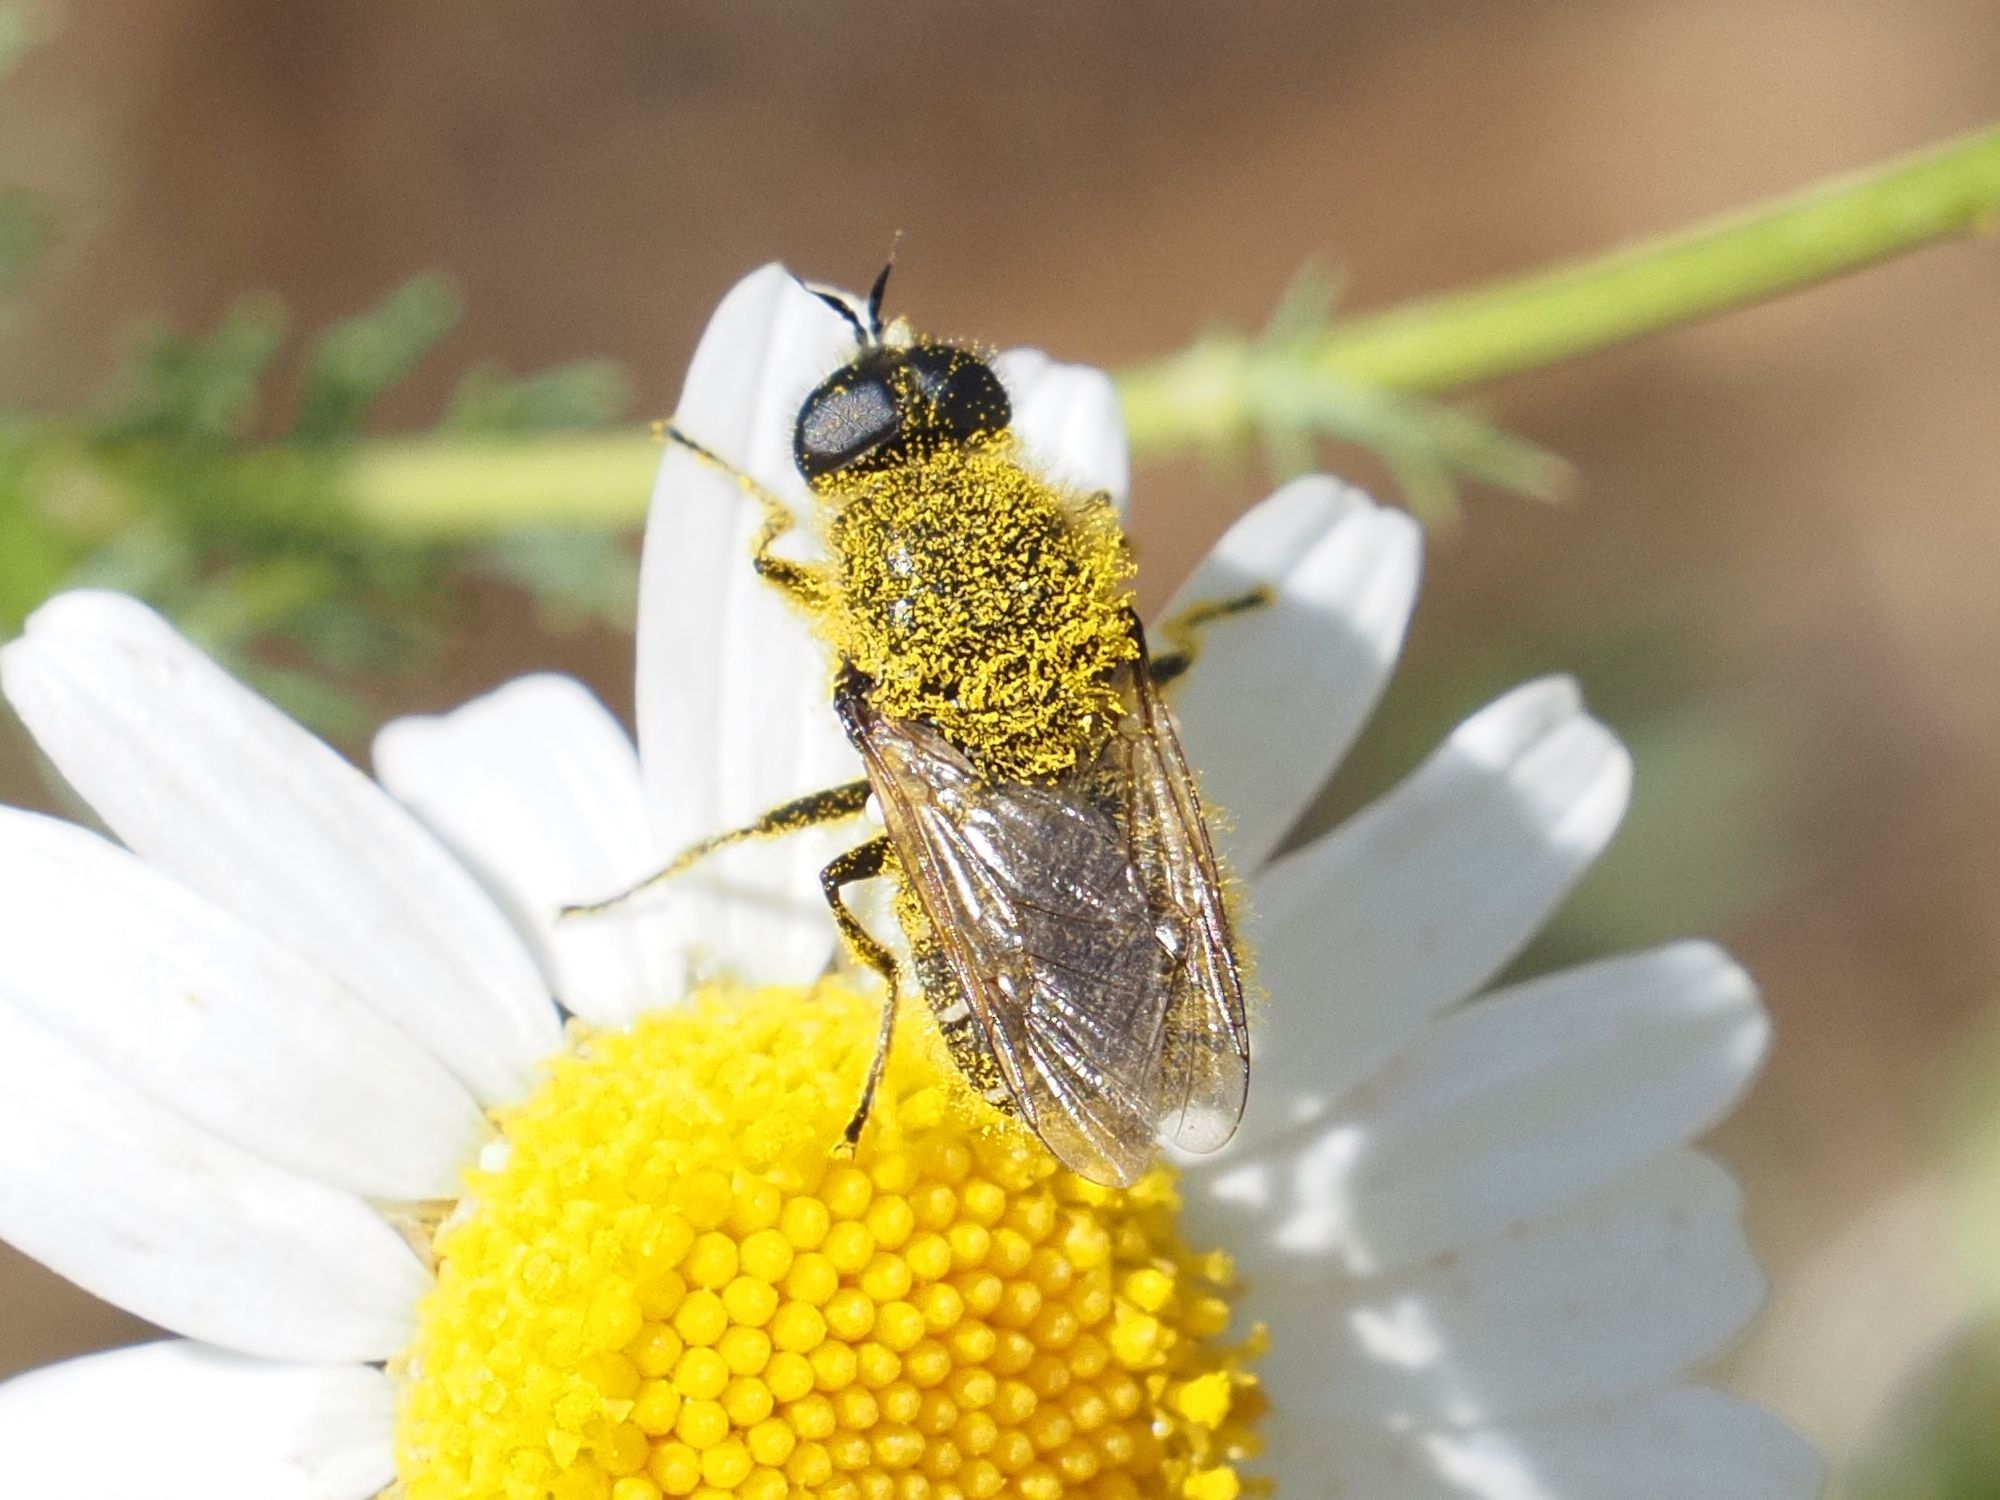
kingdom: Animalia
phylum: Arthropoda
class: Insecta
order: Diptera
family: Stratiomyidae
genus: Lasiopa
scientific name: Lasiopa villosa
